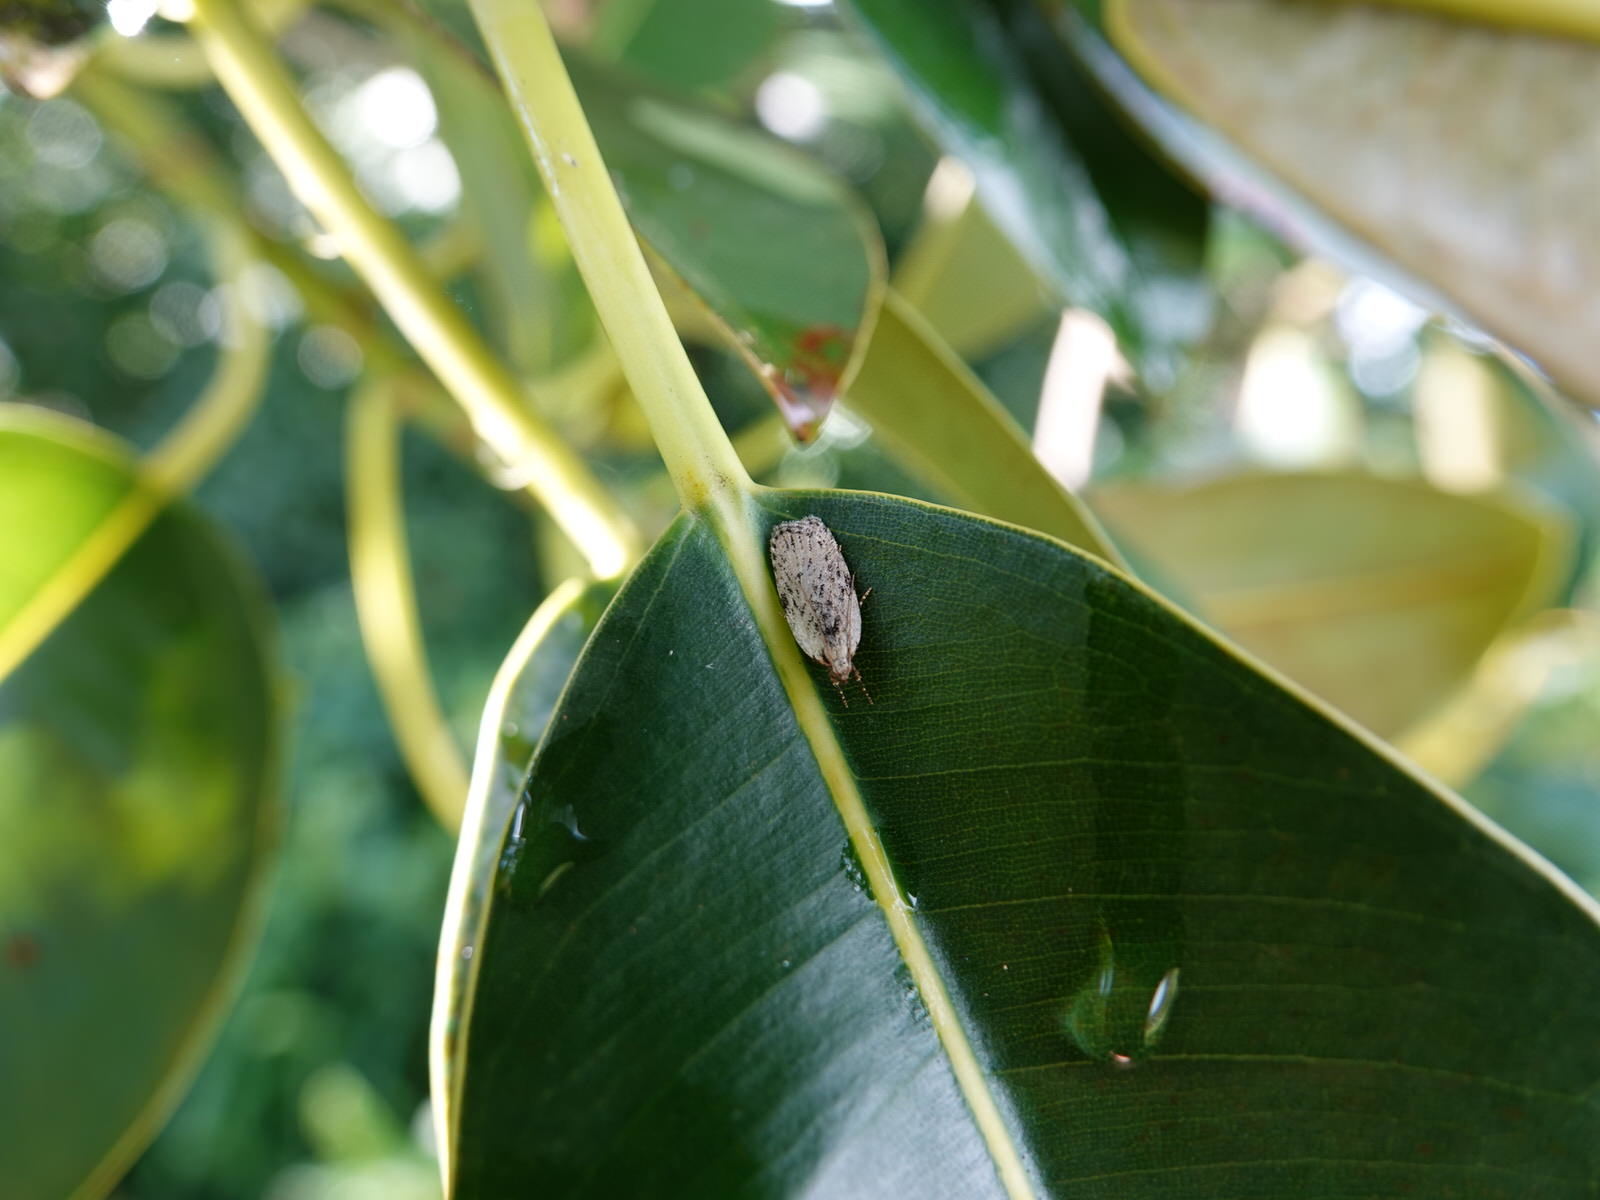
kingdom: Animalia
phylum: Arthropoda
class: Insecta
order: Lepidoptera
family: Depressariidae
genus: Phaeosaces
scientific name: Phaeosaces compsotypa
